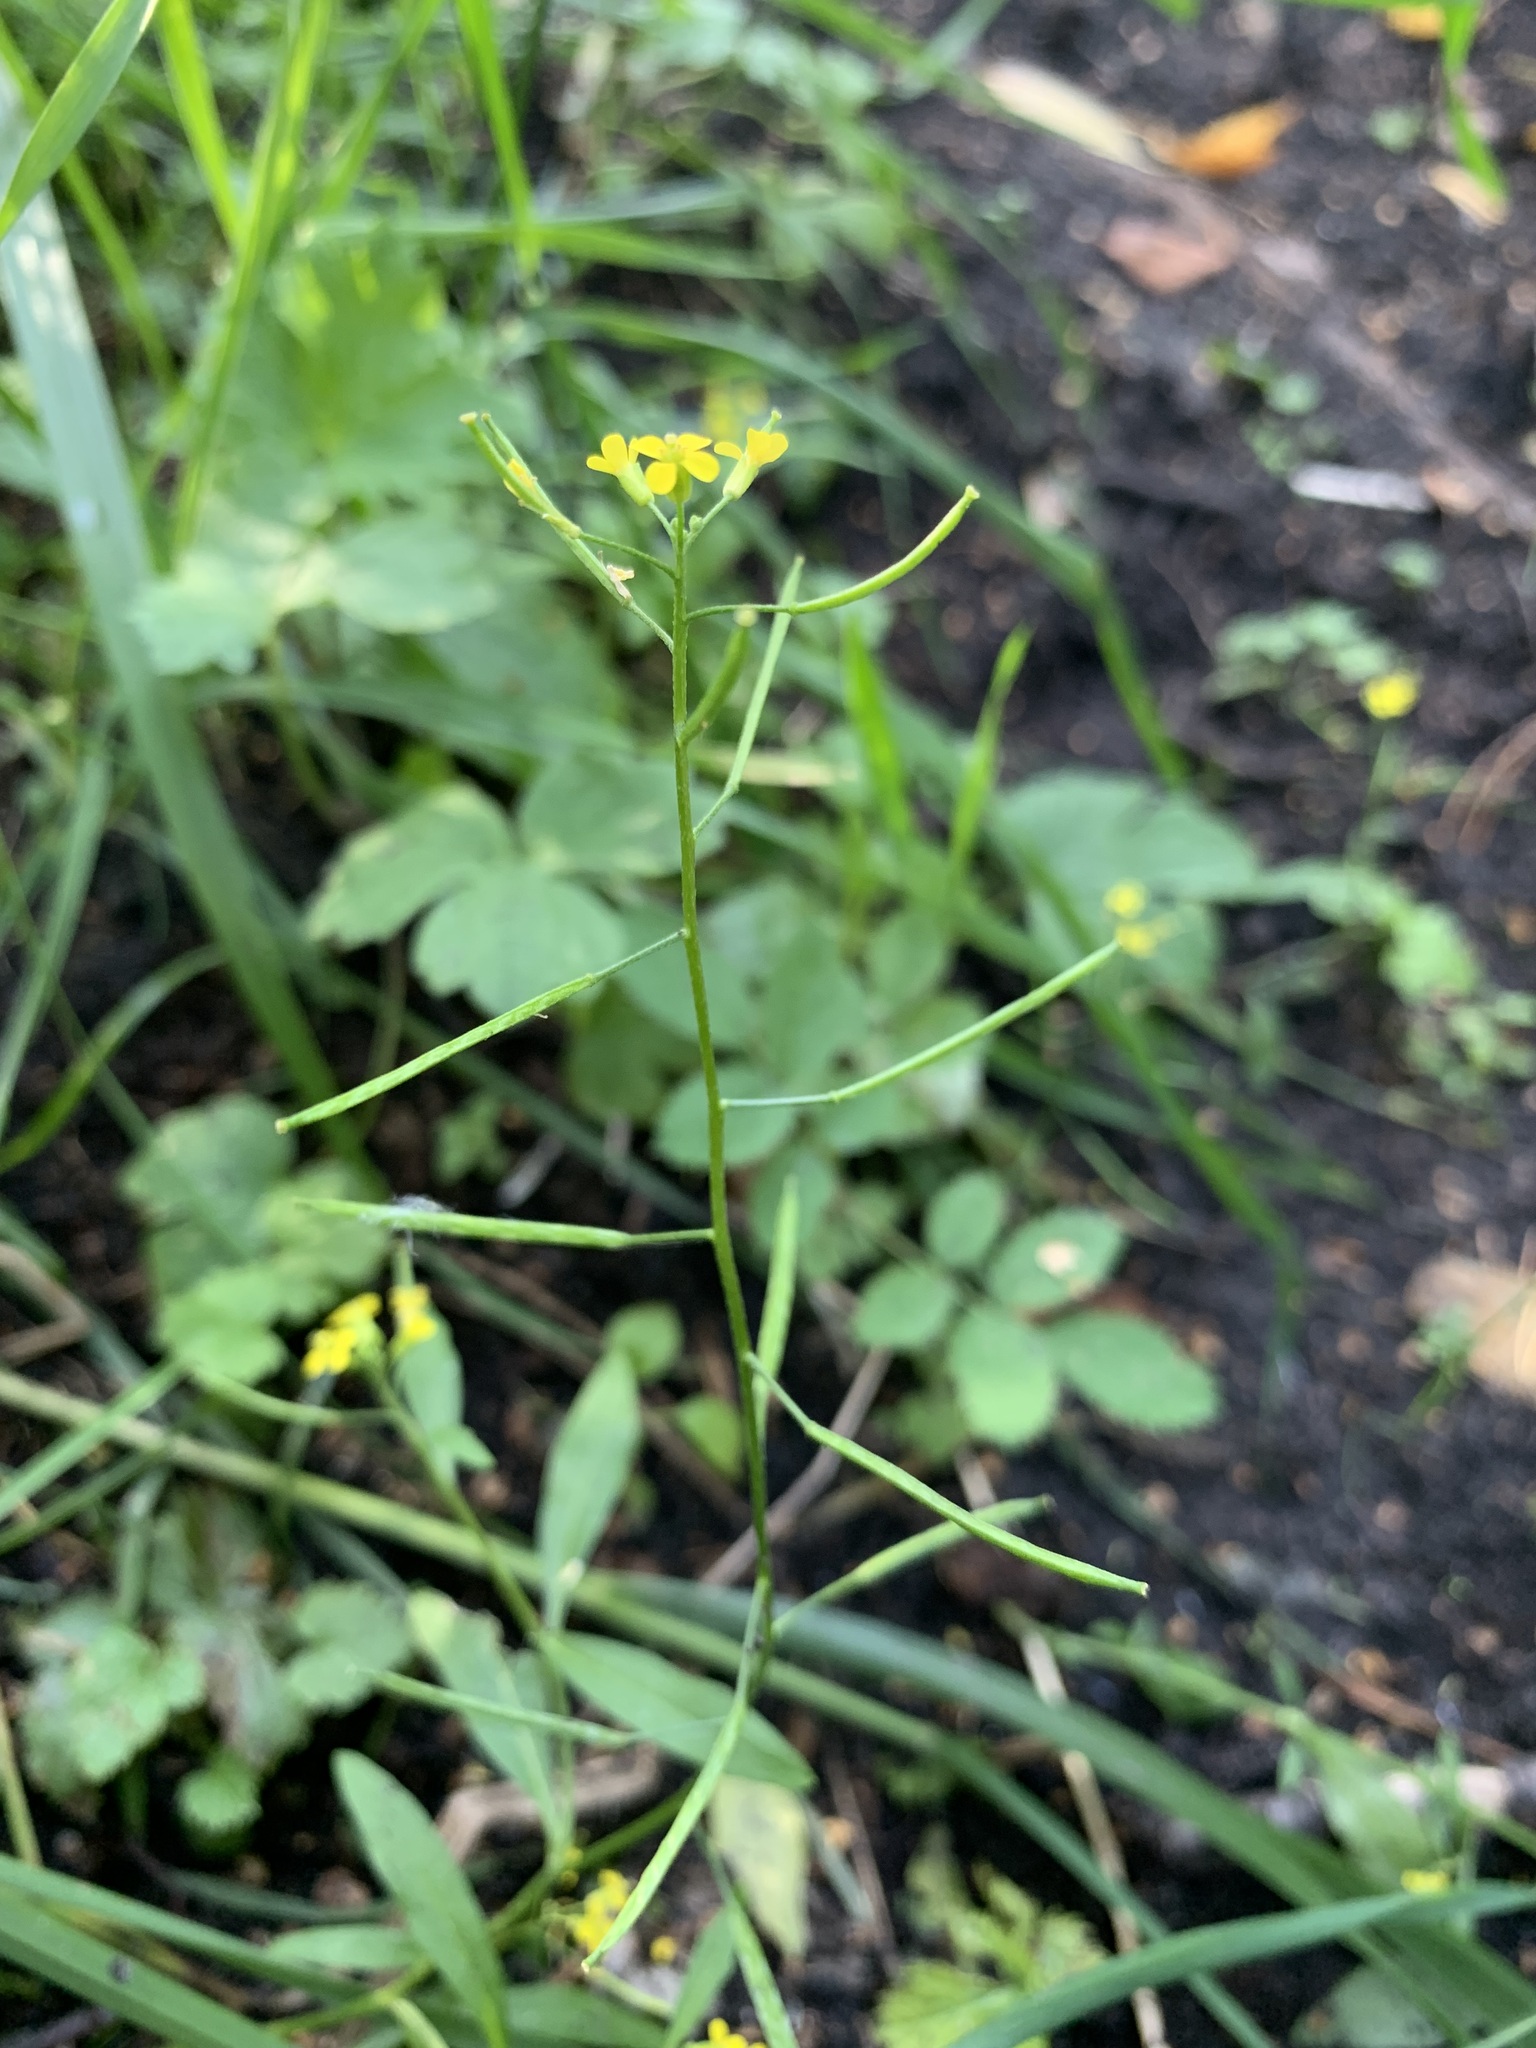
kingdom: Plantae
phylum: Tracheophyta
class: Magnoliopsida
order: Brassicales
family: Brassicaceae
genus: Erysimum
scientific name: Erysimum cheiranthoides
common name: Treacle mustard
